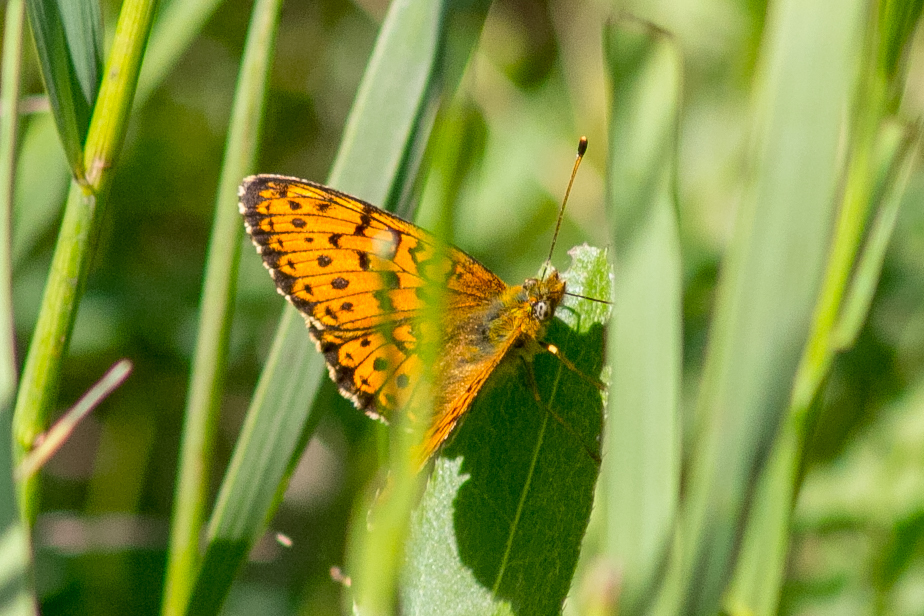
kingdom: Animalia
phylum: Arthropoda
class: Insecta
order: Lepidoptera
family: Nymphalidae
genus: Brenthis
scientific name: Brenthis ino
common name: Lesser marbled fritillary
